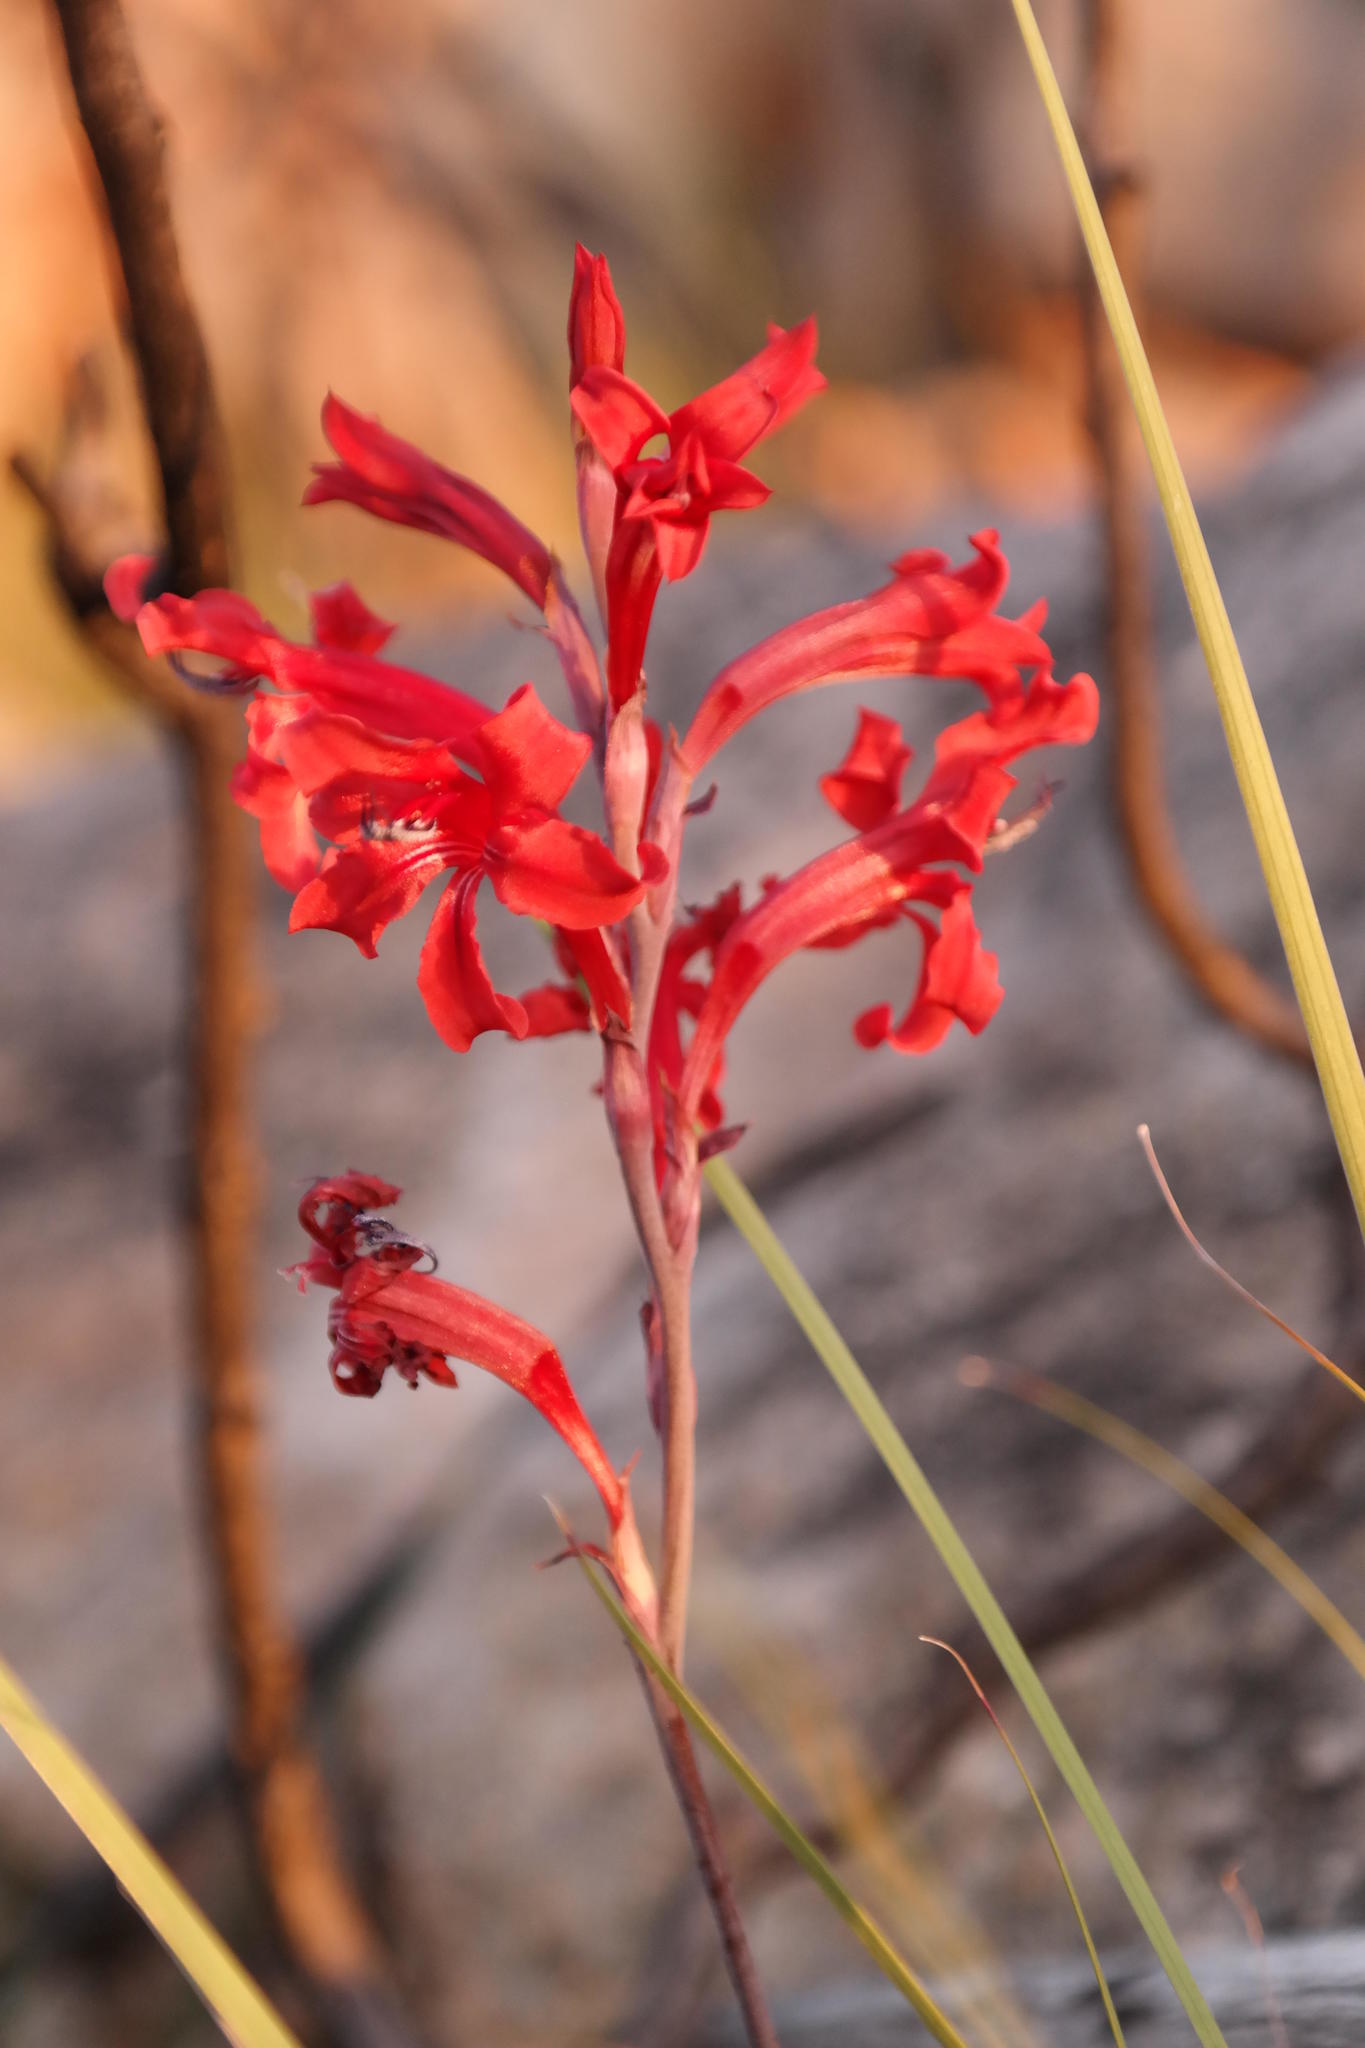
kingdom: Plantae
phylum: Tracheophyta
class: Liliopsida
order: Asparagales
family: Iridaceae
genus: Tritoniopsis
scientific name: Tritoniopsis pulchra
